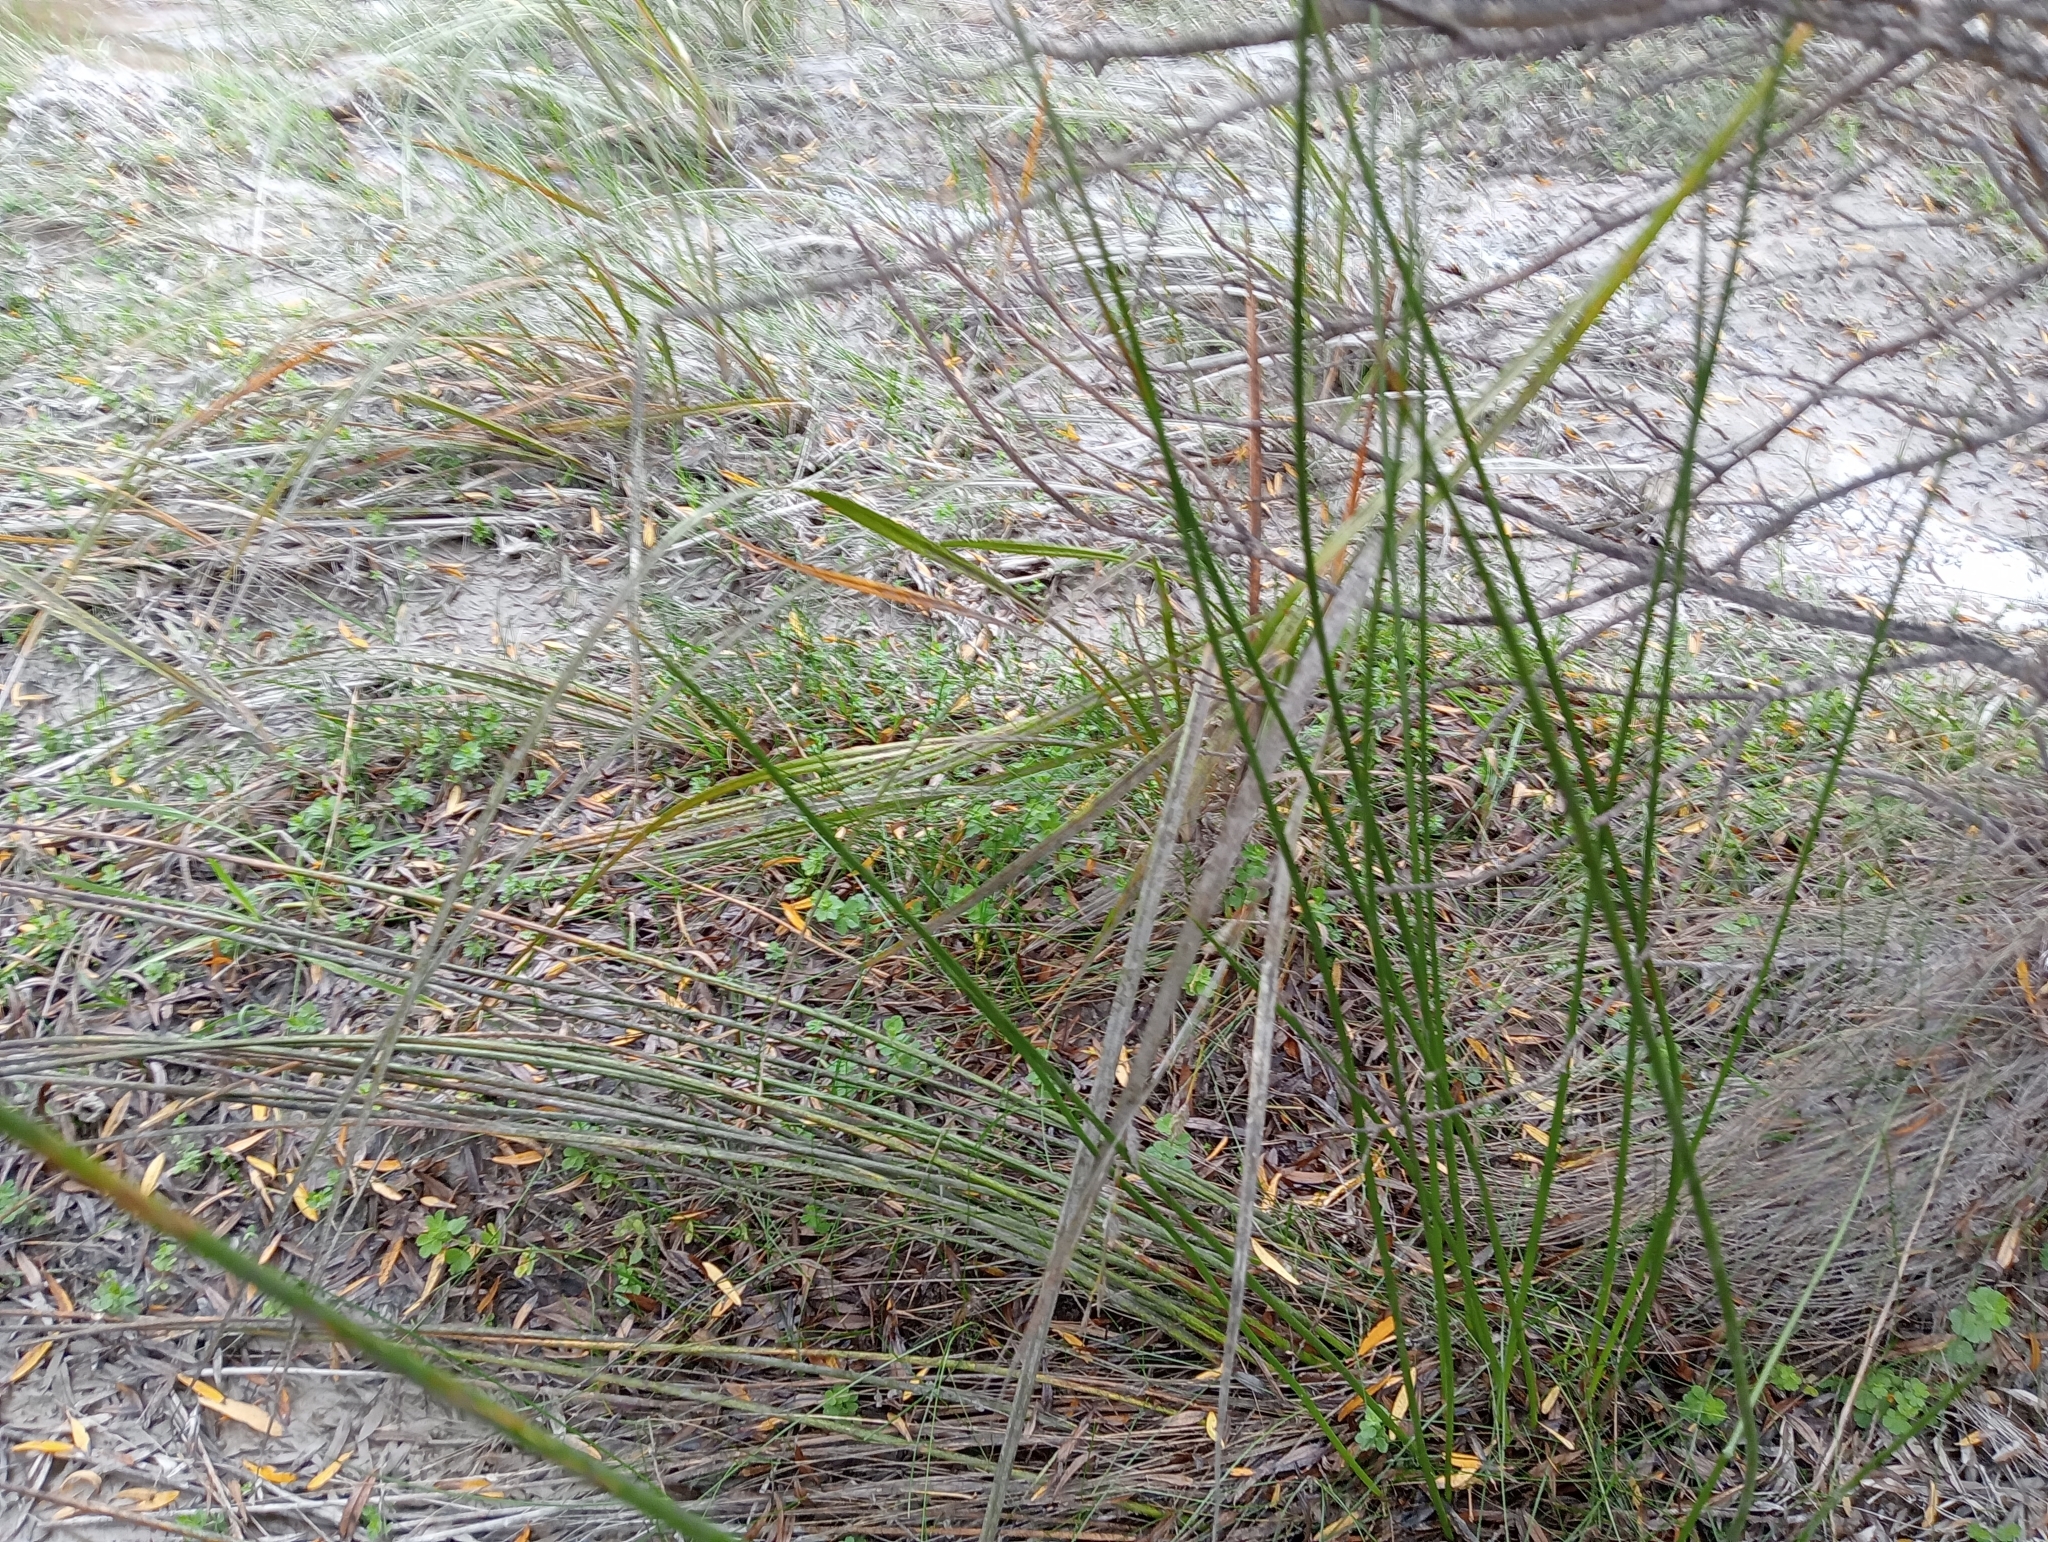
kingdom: Plantae
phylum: Tracheophyta
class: Liliopsida
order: Poales
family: Cyperaceae
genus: Carex
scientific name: Carex geminata
